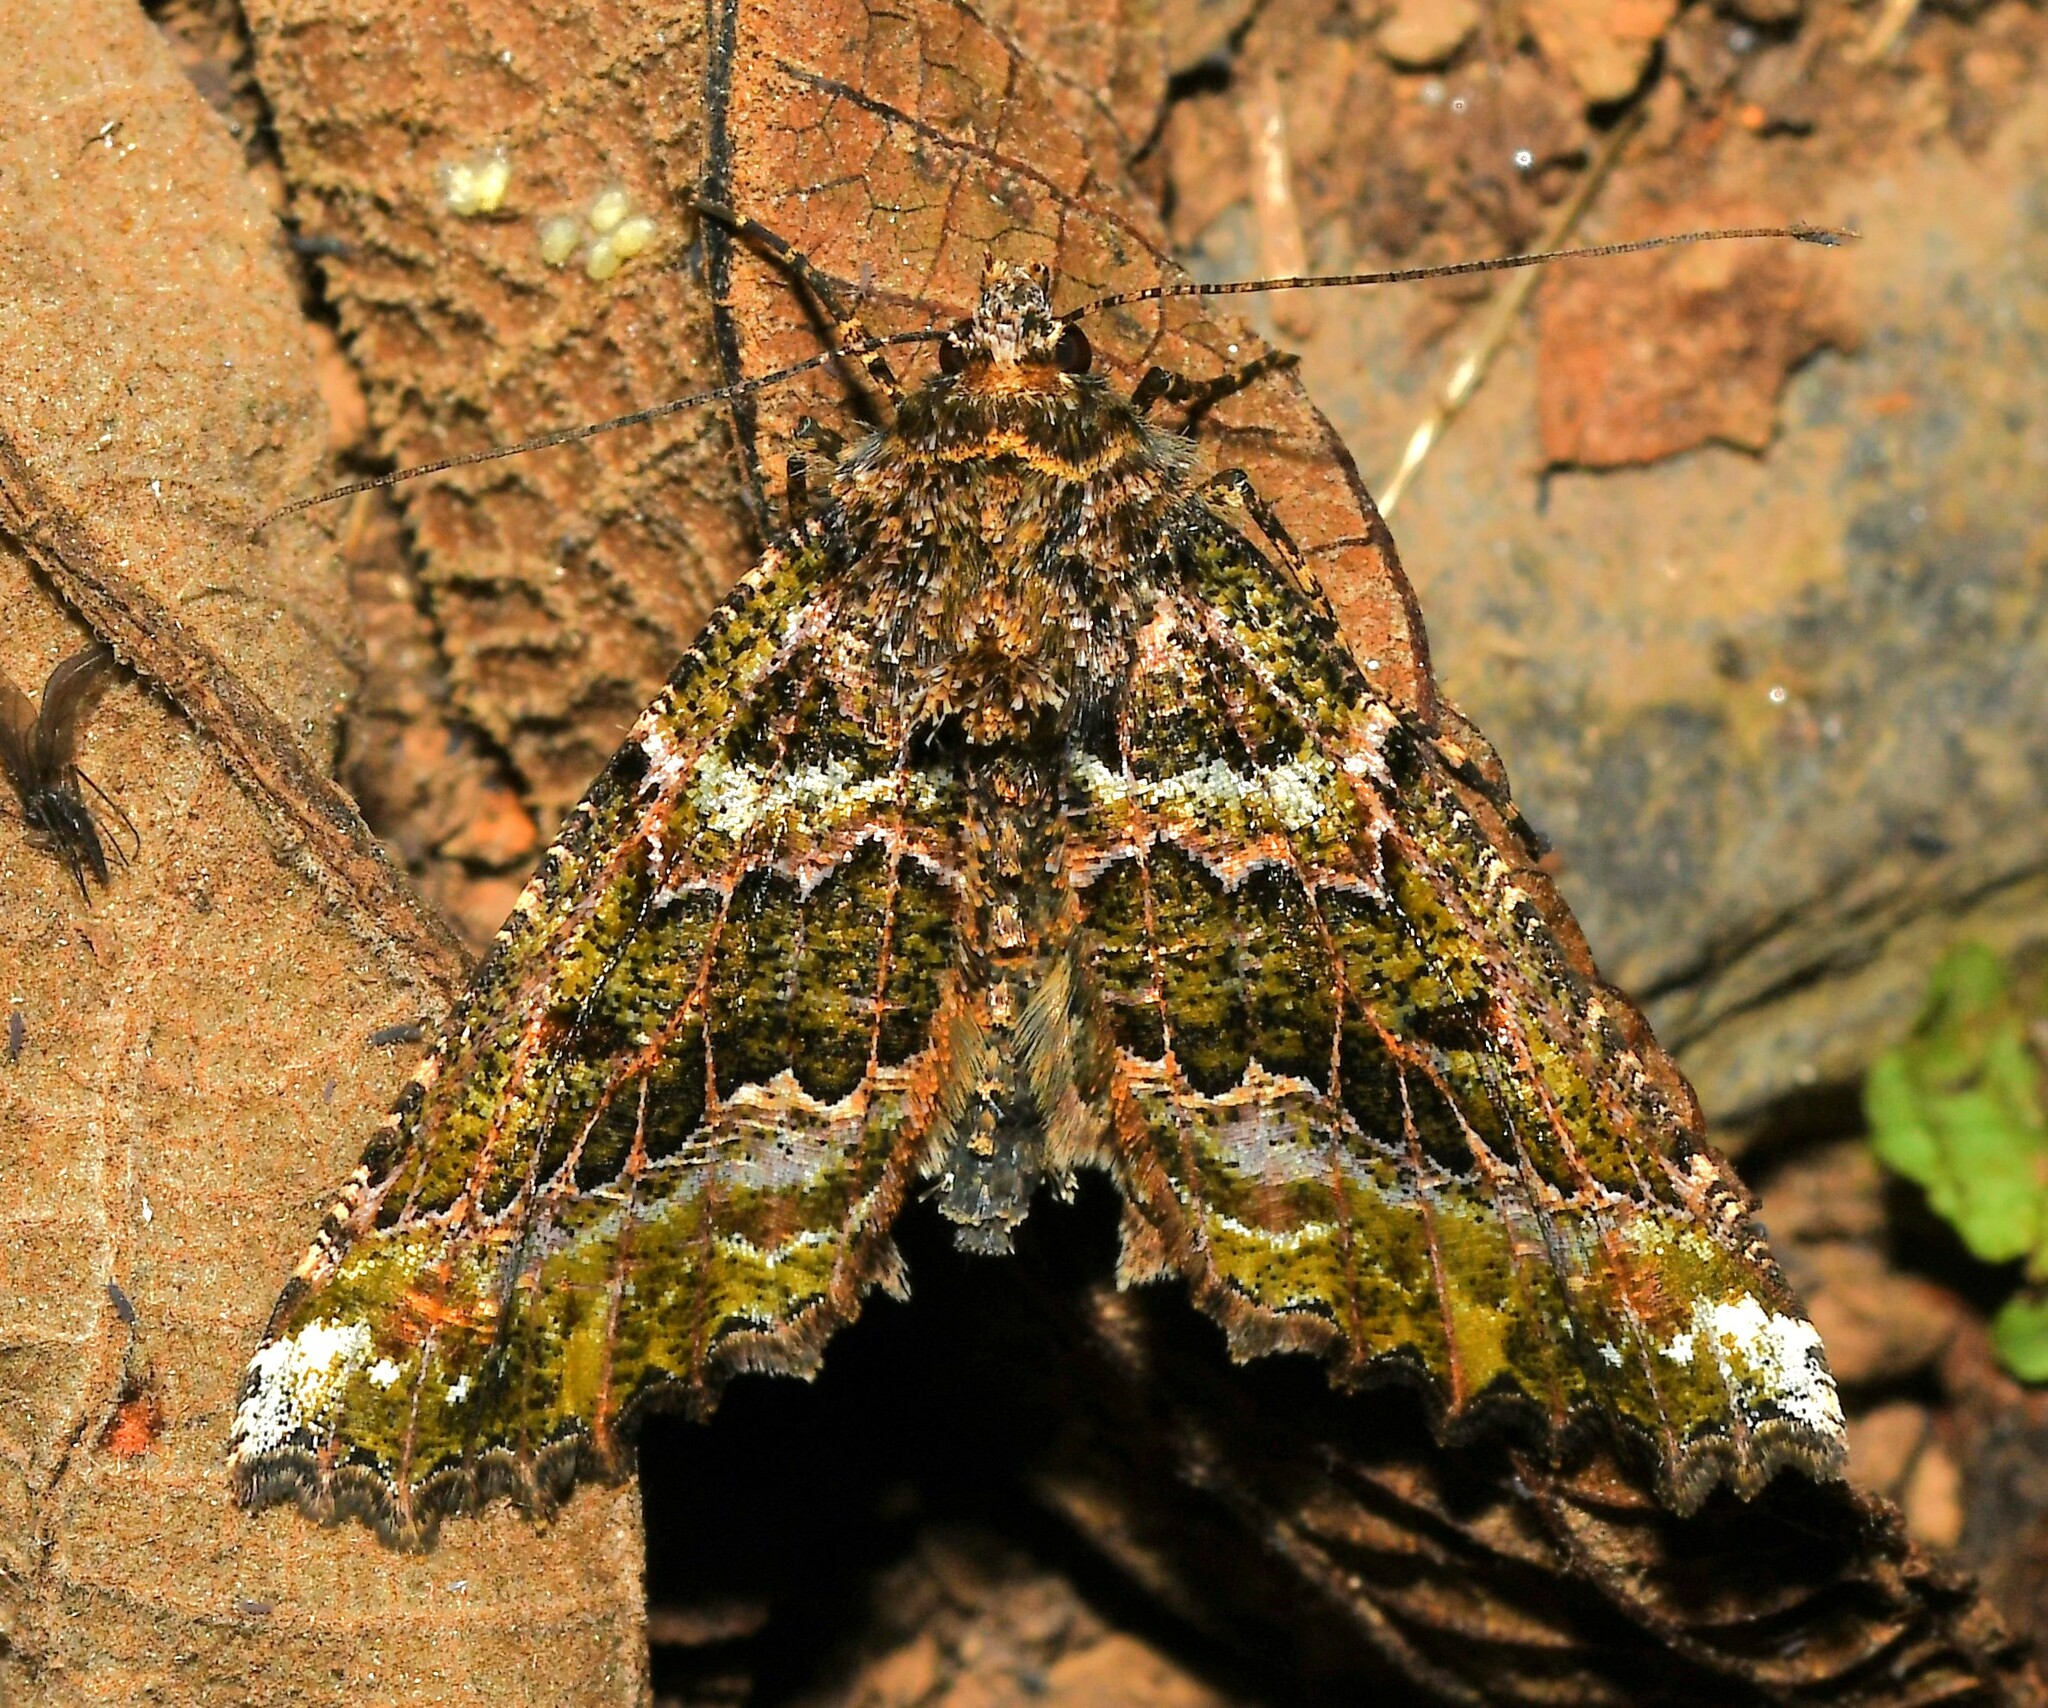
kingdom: Animalia
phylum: Arthropoda
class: Insecta
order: Lepidoptera
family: Geometridae
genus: Aragua
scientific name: Aragua bistonaria
